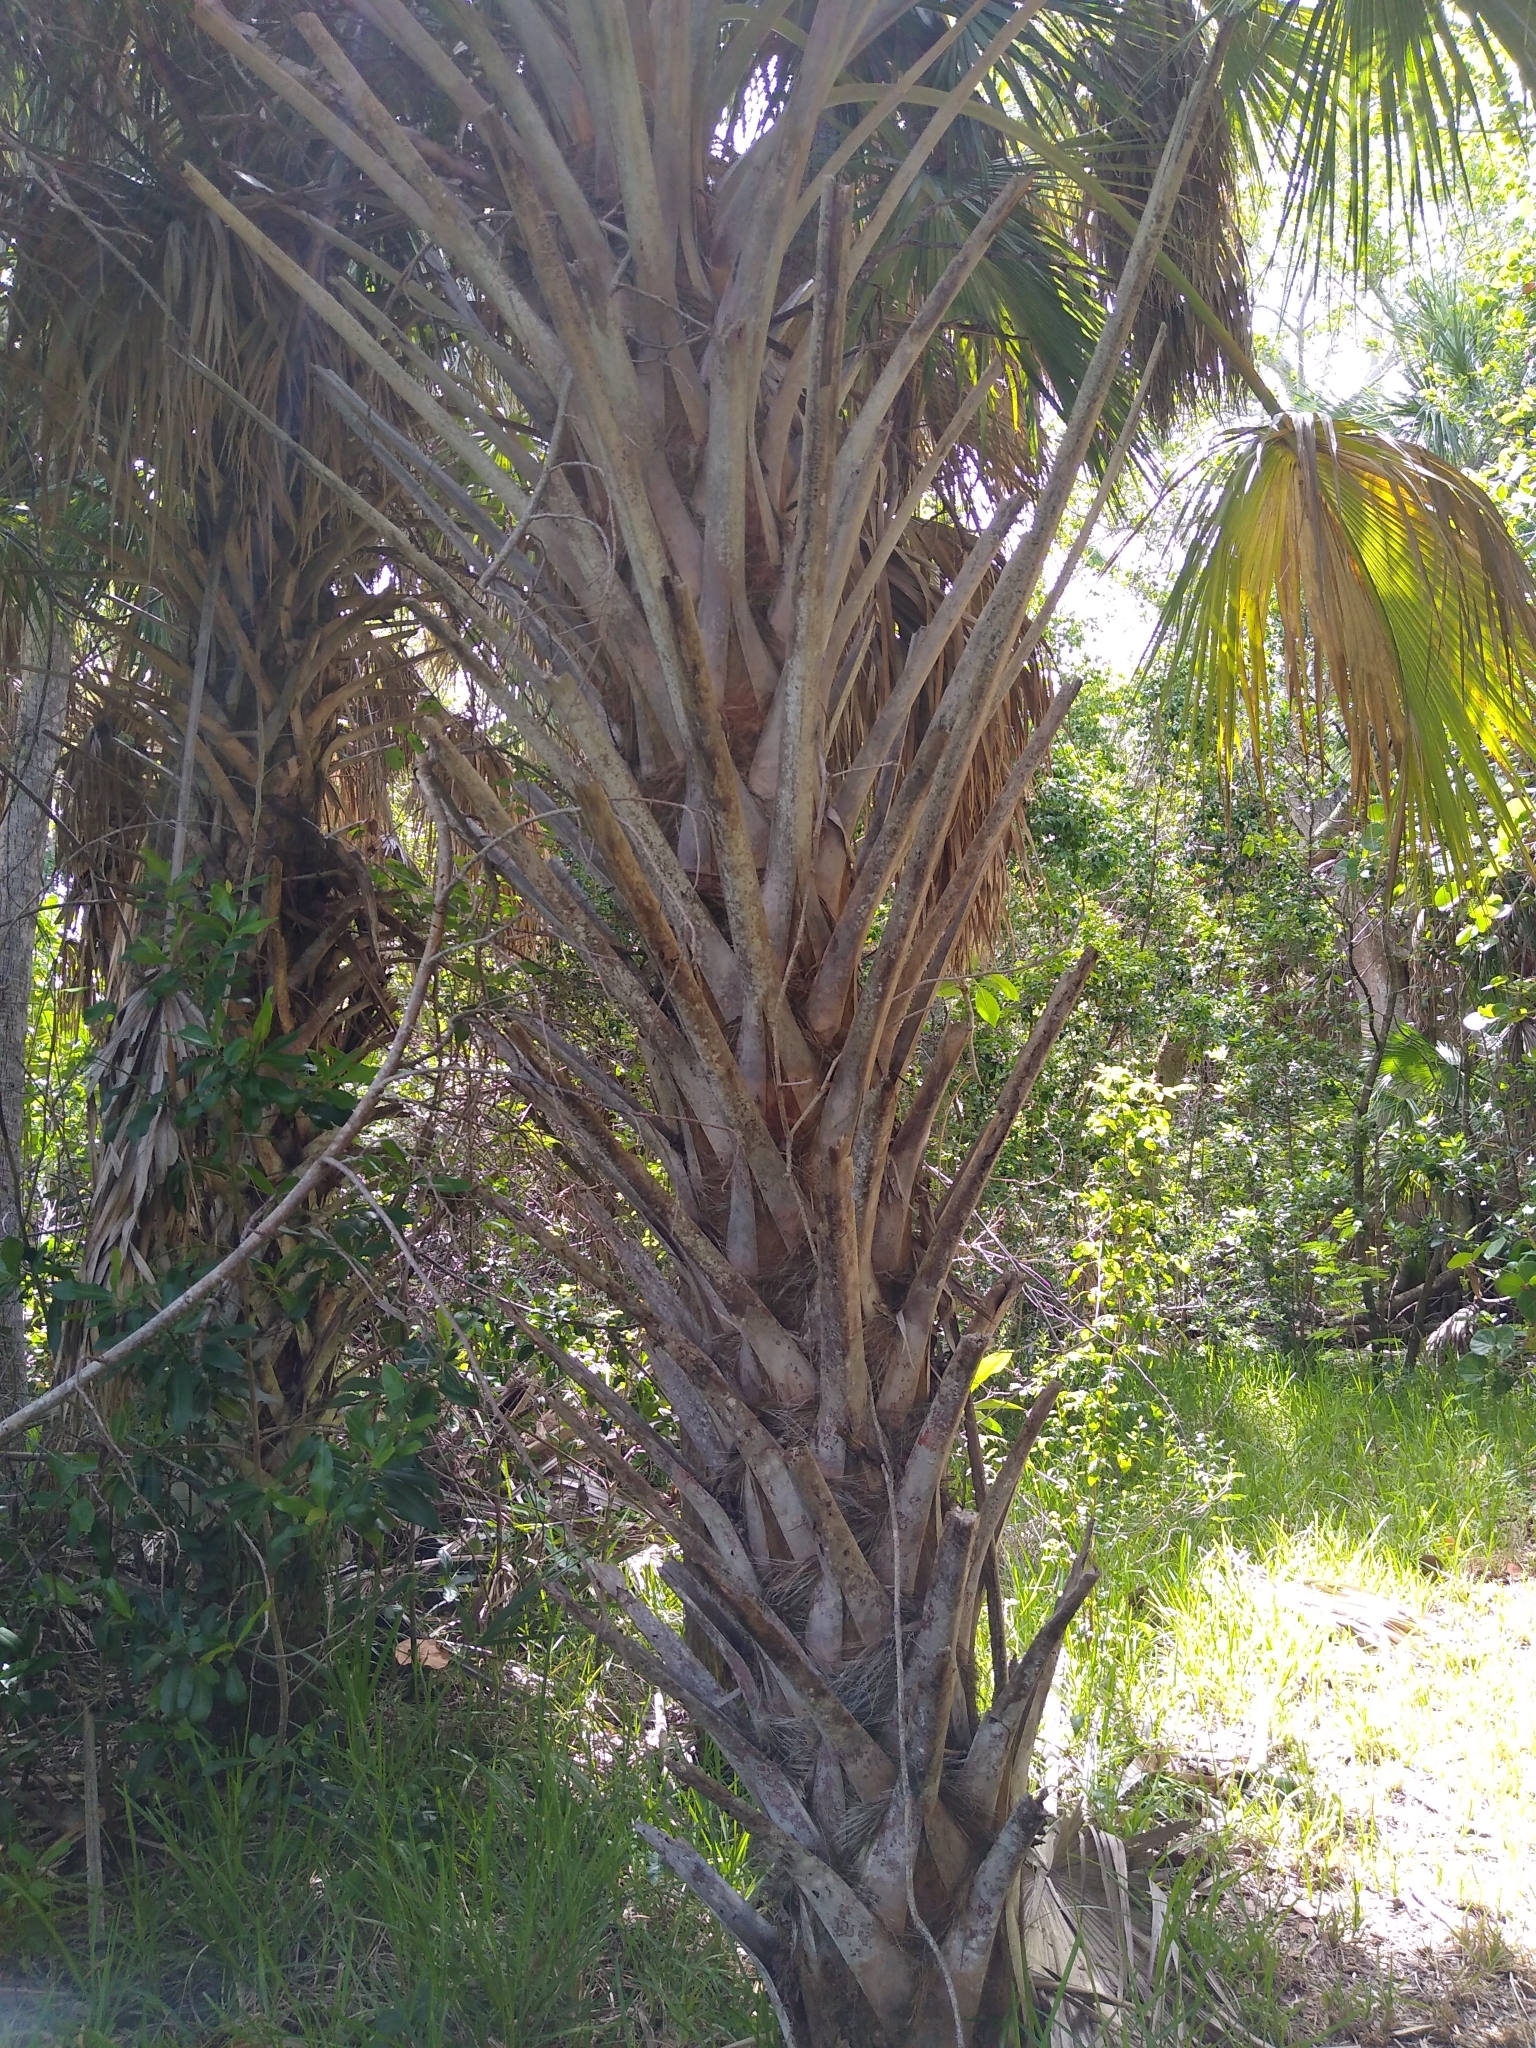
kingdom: Plantae
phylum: Tracheophyta
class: Liliopsida
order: Arecales
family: Arecaceae
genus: Sabal
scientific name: Sabal palmetto
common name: Blue palmetto
